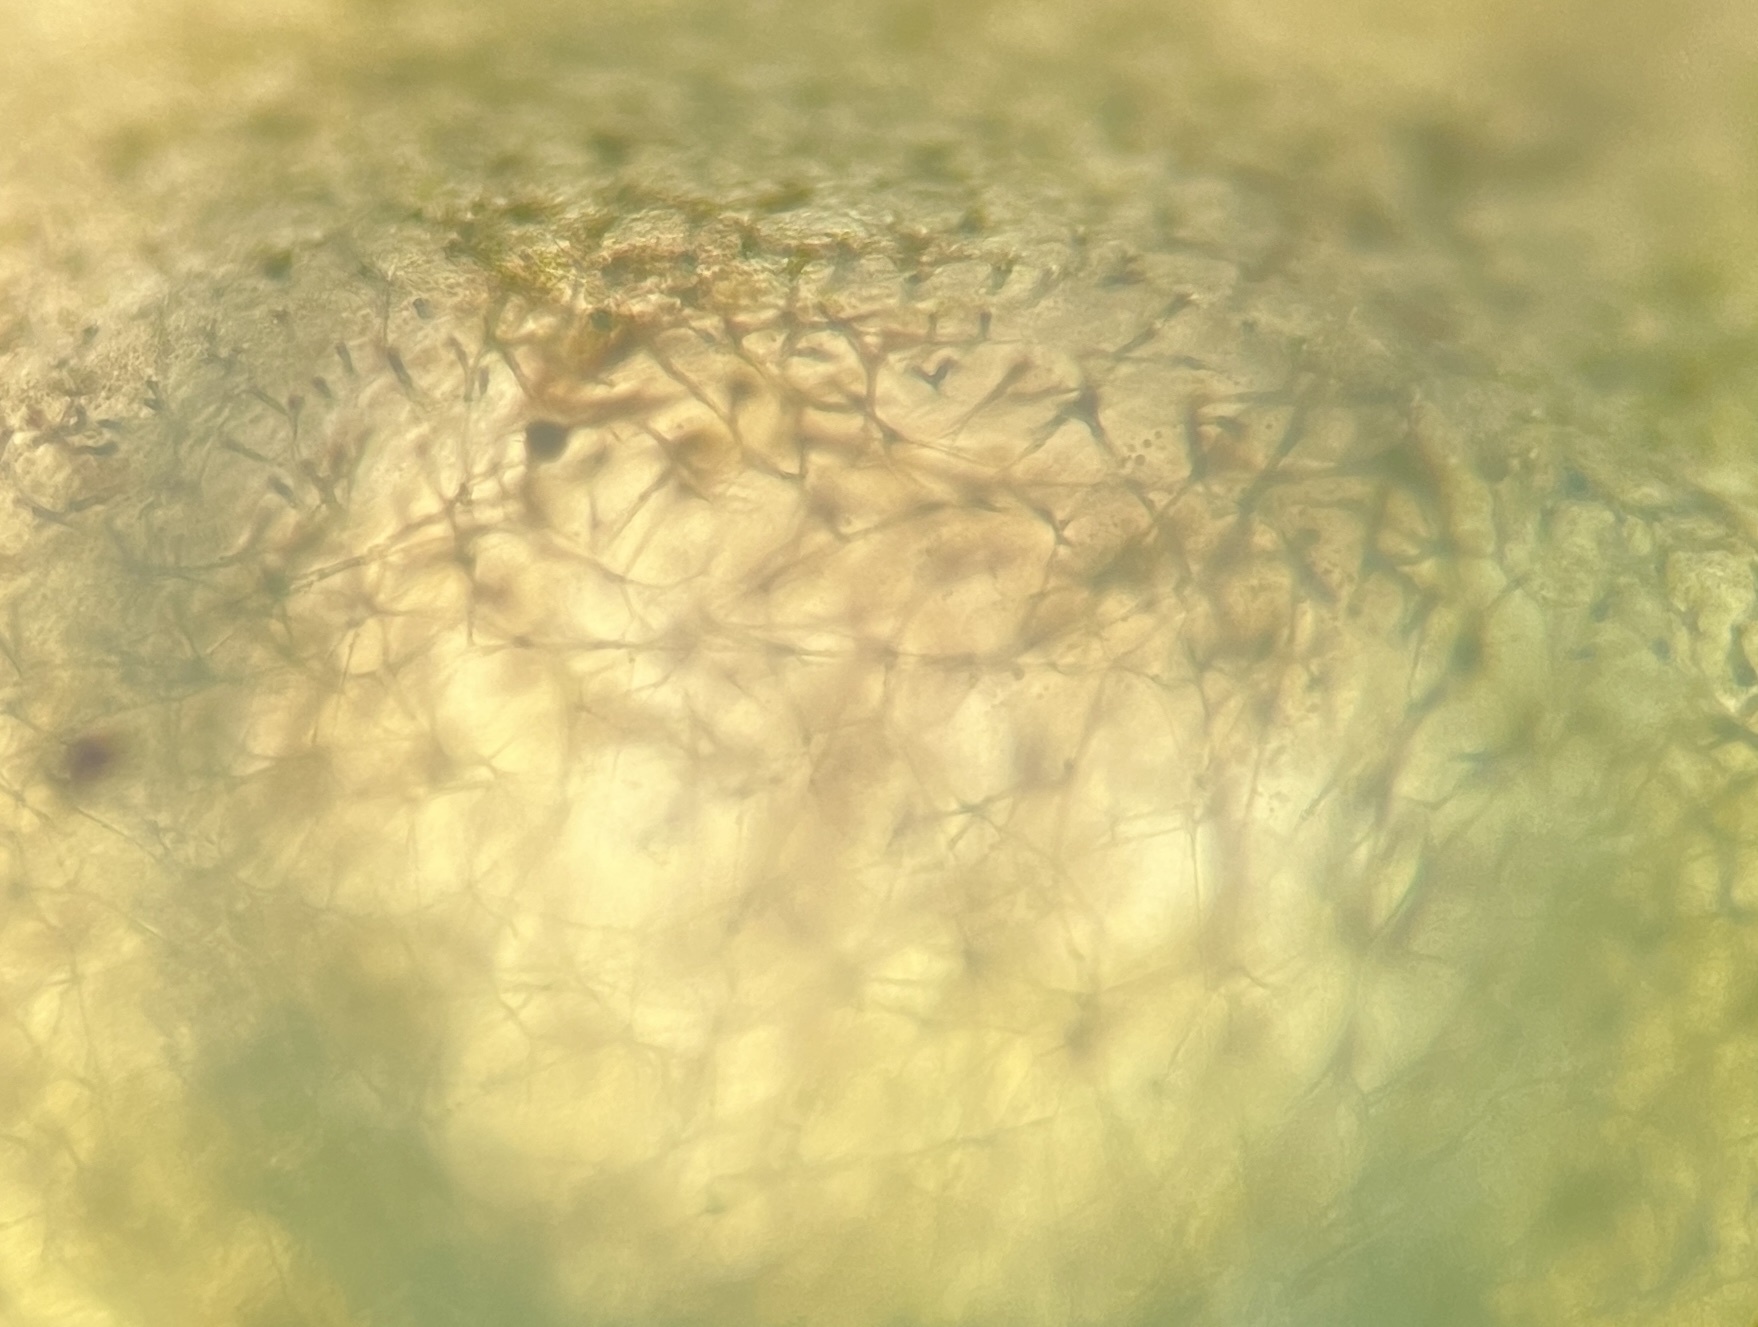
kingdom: Plantae
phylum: Chlorophyta
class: Ulvophyceae
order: Bryopsidales
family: Caulerpaceae
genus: Caulerpa
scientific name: Caulerpa chemnitzia
